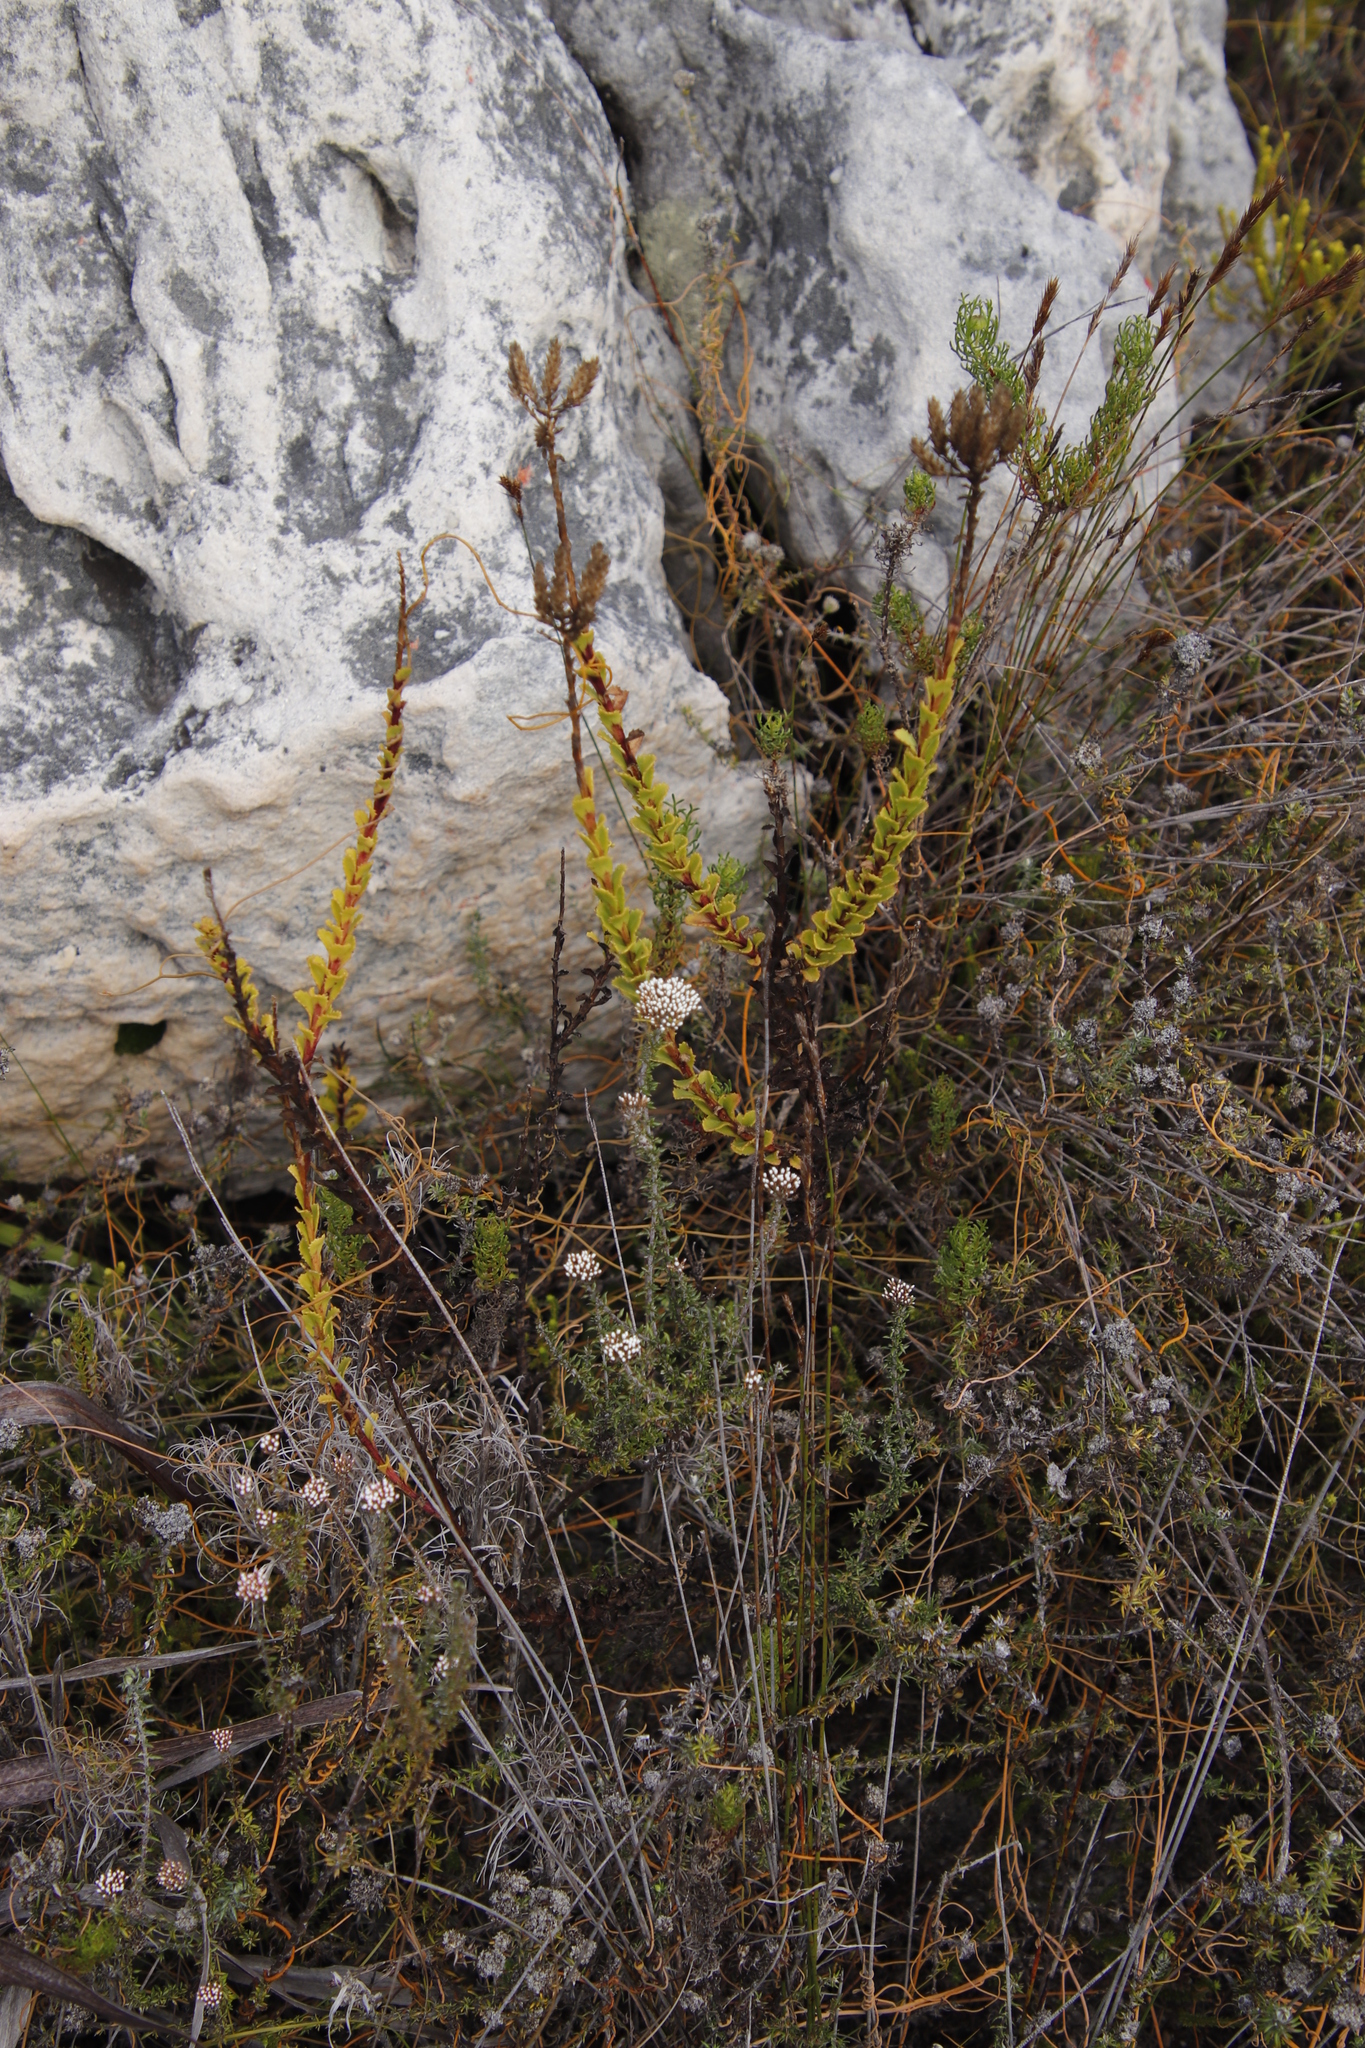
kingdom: Plantae
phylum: Tracheophyta
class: Magnoliopsida
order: Lamiales
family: Scrophulariaceae
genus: Pseudoselago
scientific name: Pseudoselago serrata
